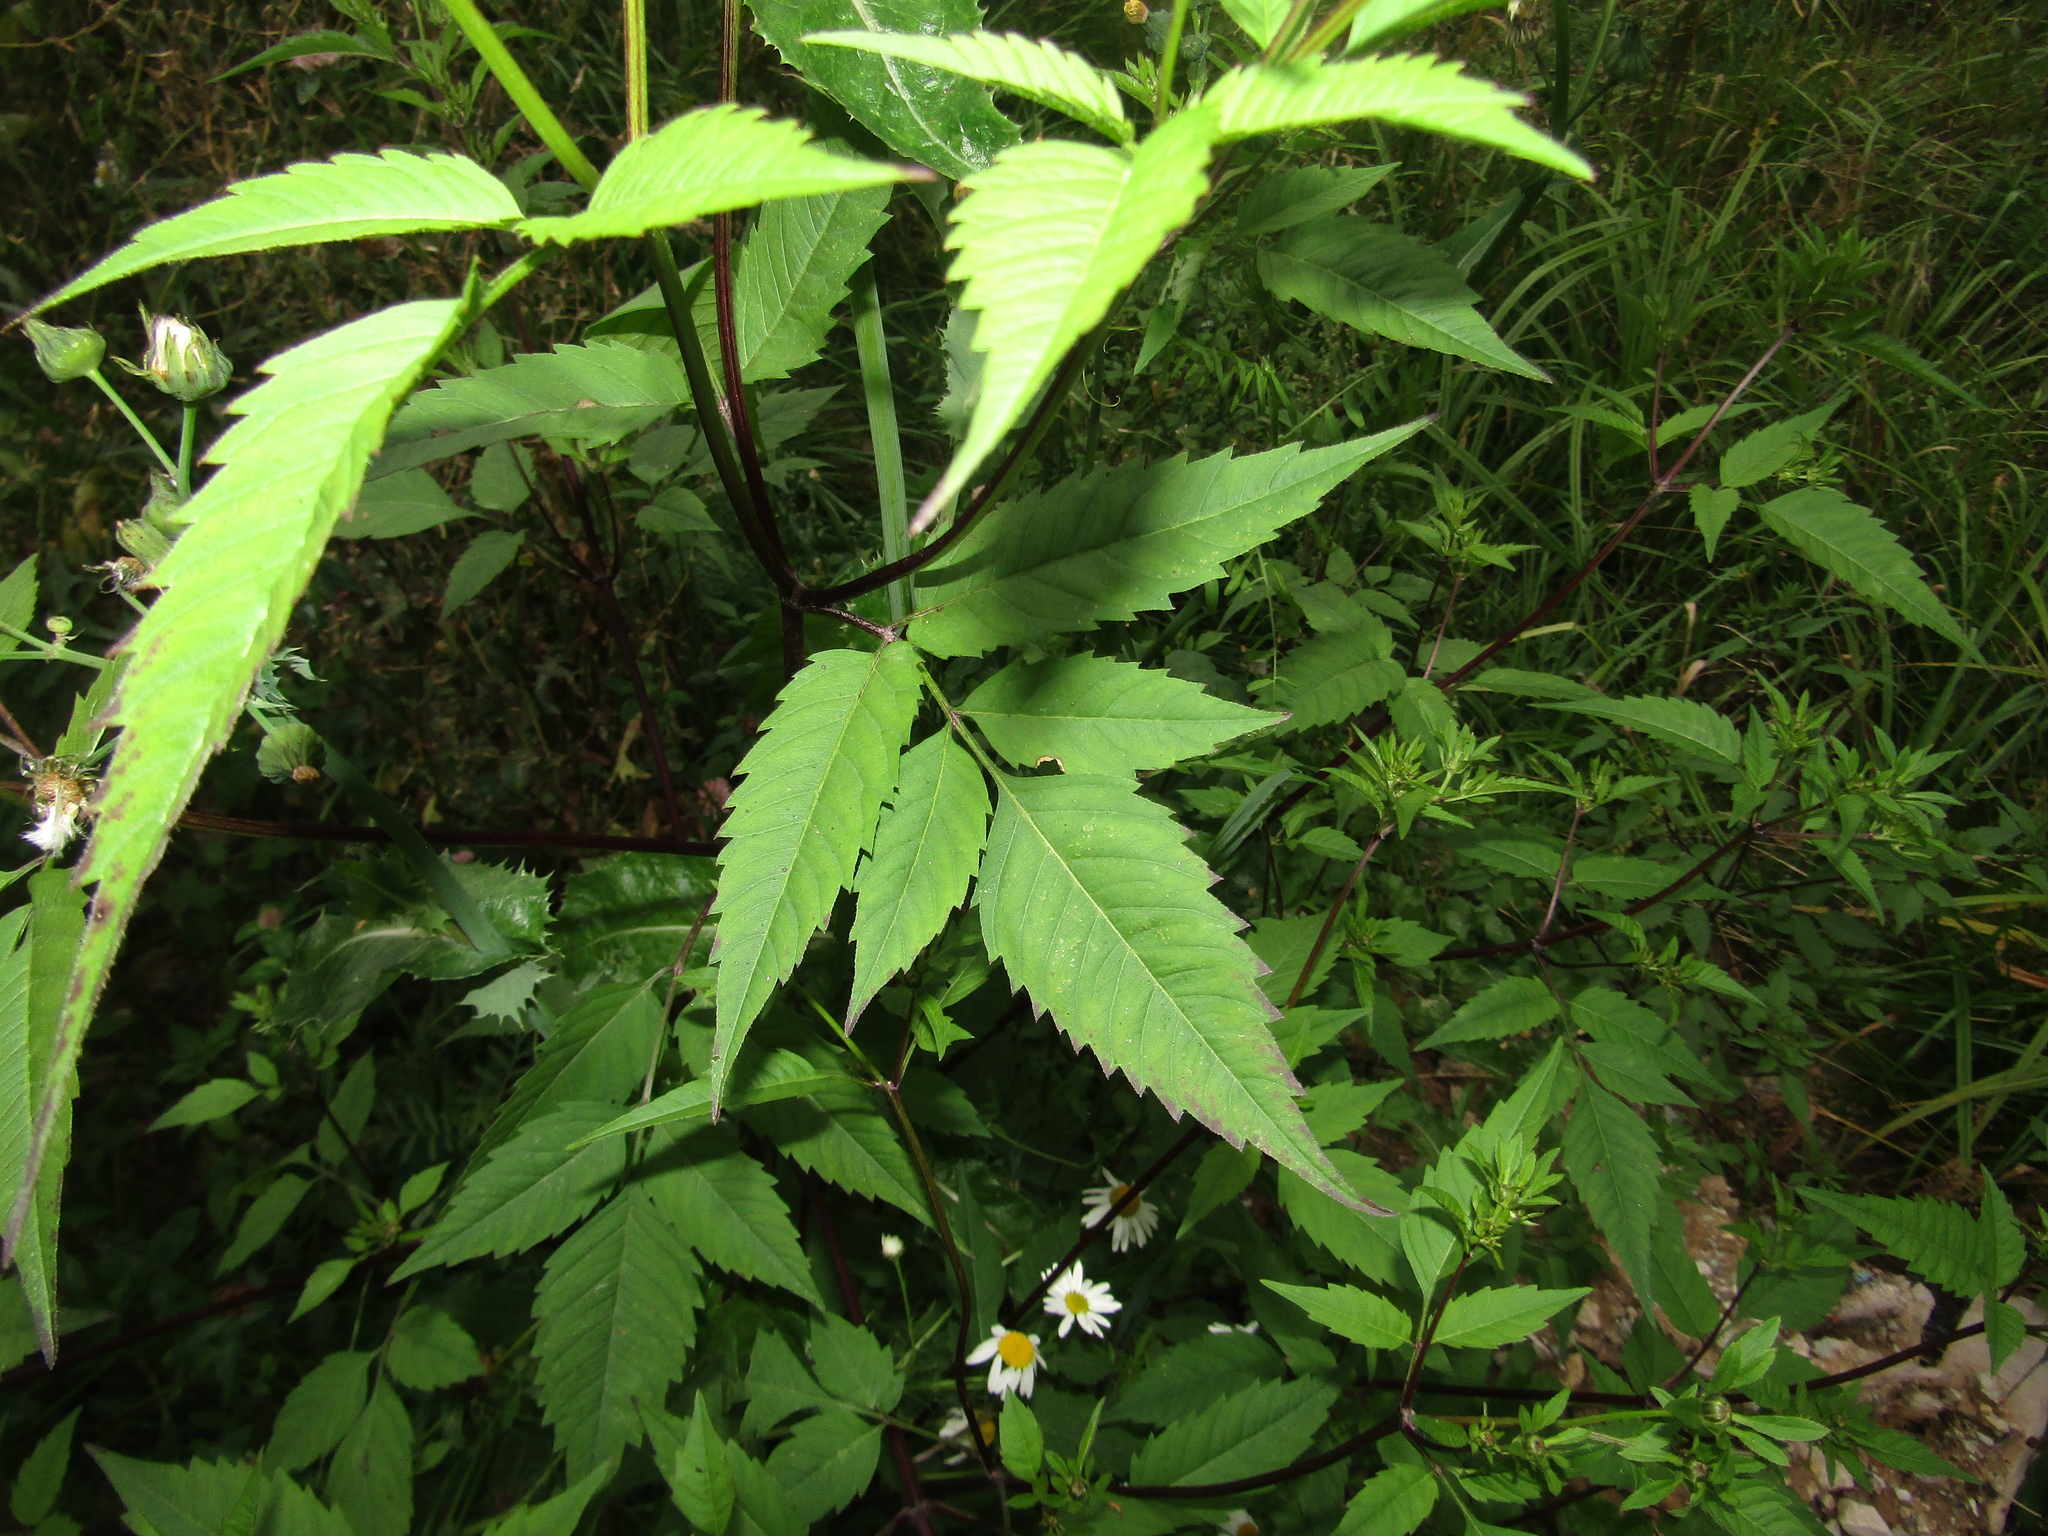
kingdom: Plantae
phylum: Tracheophyta
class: Magnoliopsida
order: Asterales
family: Asteraceae
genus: Bidens
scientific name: Bidens frondosa
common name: Beggarticks
